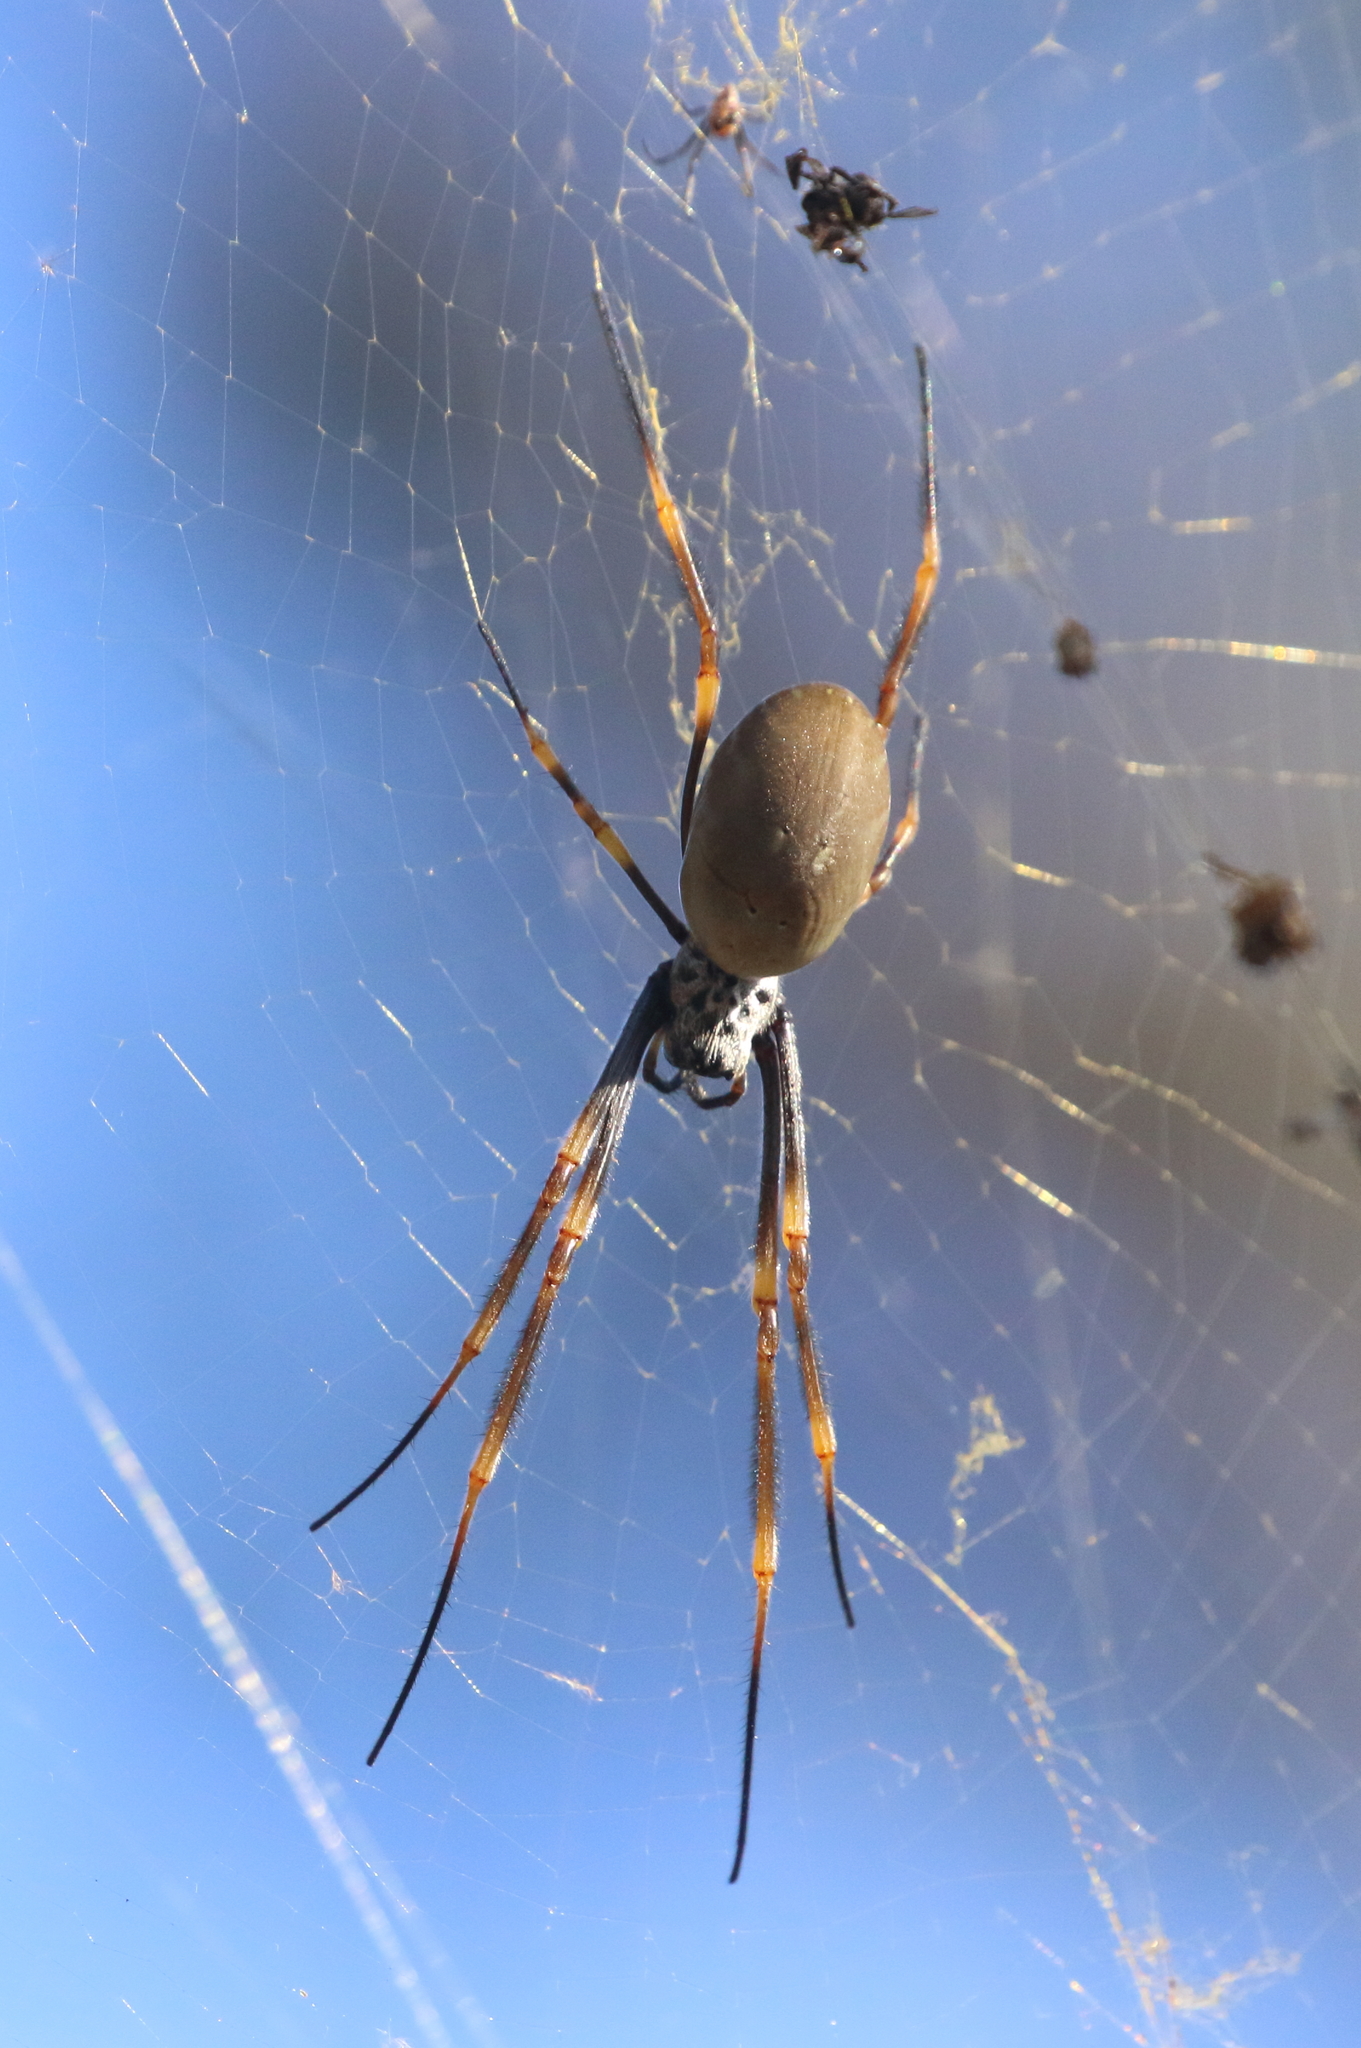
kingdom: Animalia
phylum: Arthropoda
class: Arachnida
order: Araneae
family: Araneidae
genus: Trichonephila
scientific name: Trichonephila plumipes
